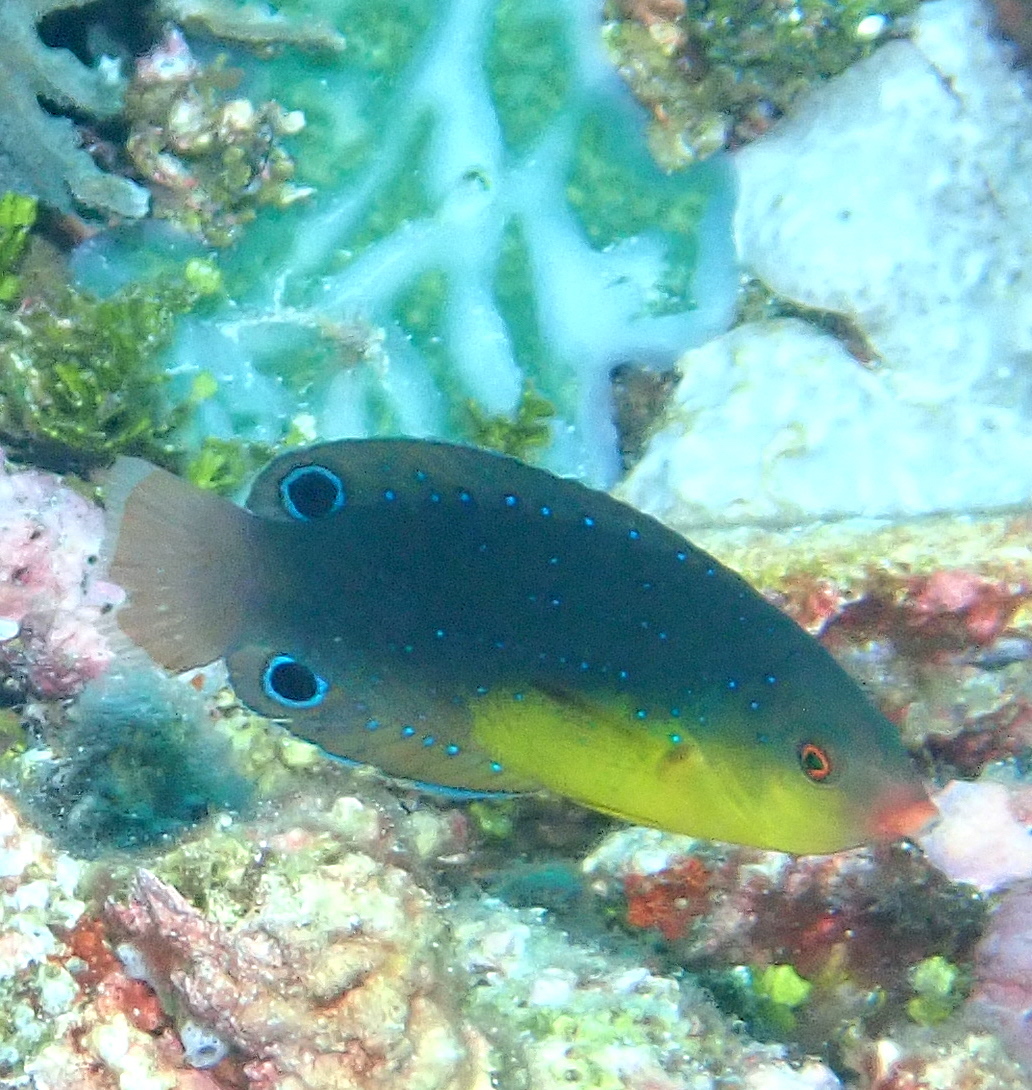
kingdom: Animalia
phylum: Chordata
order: Perciformes
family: Labridae
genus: Anampses
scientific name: Anampses twistii
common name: Yellowbreasted wrasse
